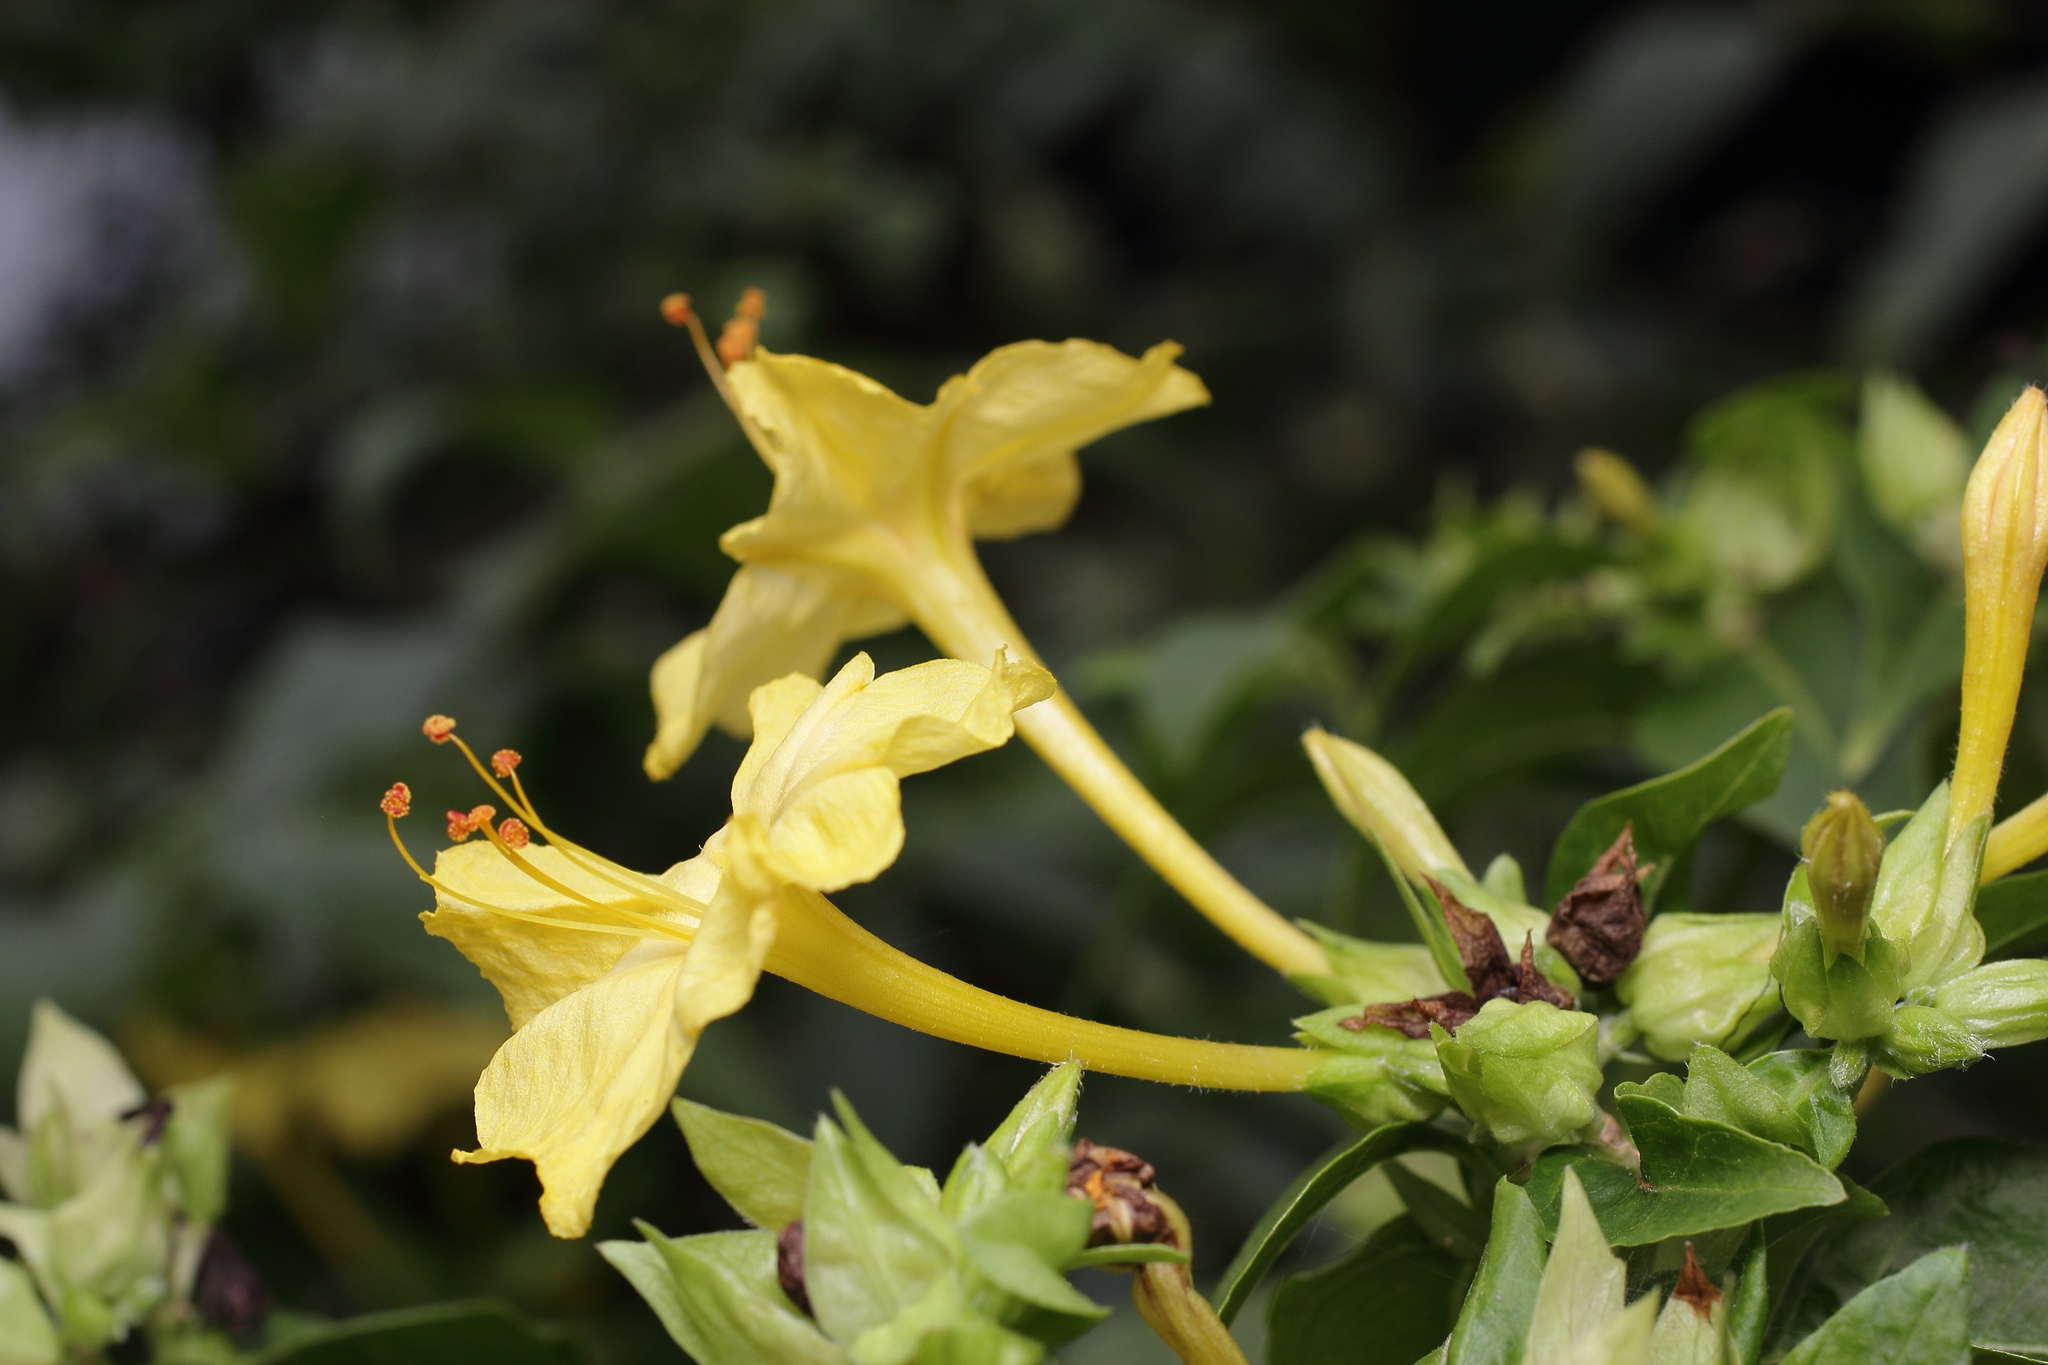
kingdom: Plantae
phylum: Tracheophyta
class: Magnoliopsida
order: Caryophyllales
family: Nyctaginaceae
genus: Mirabilis
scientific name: Mirabilis jalapa
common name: Marvel-of-peru
